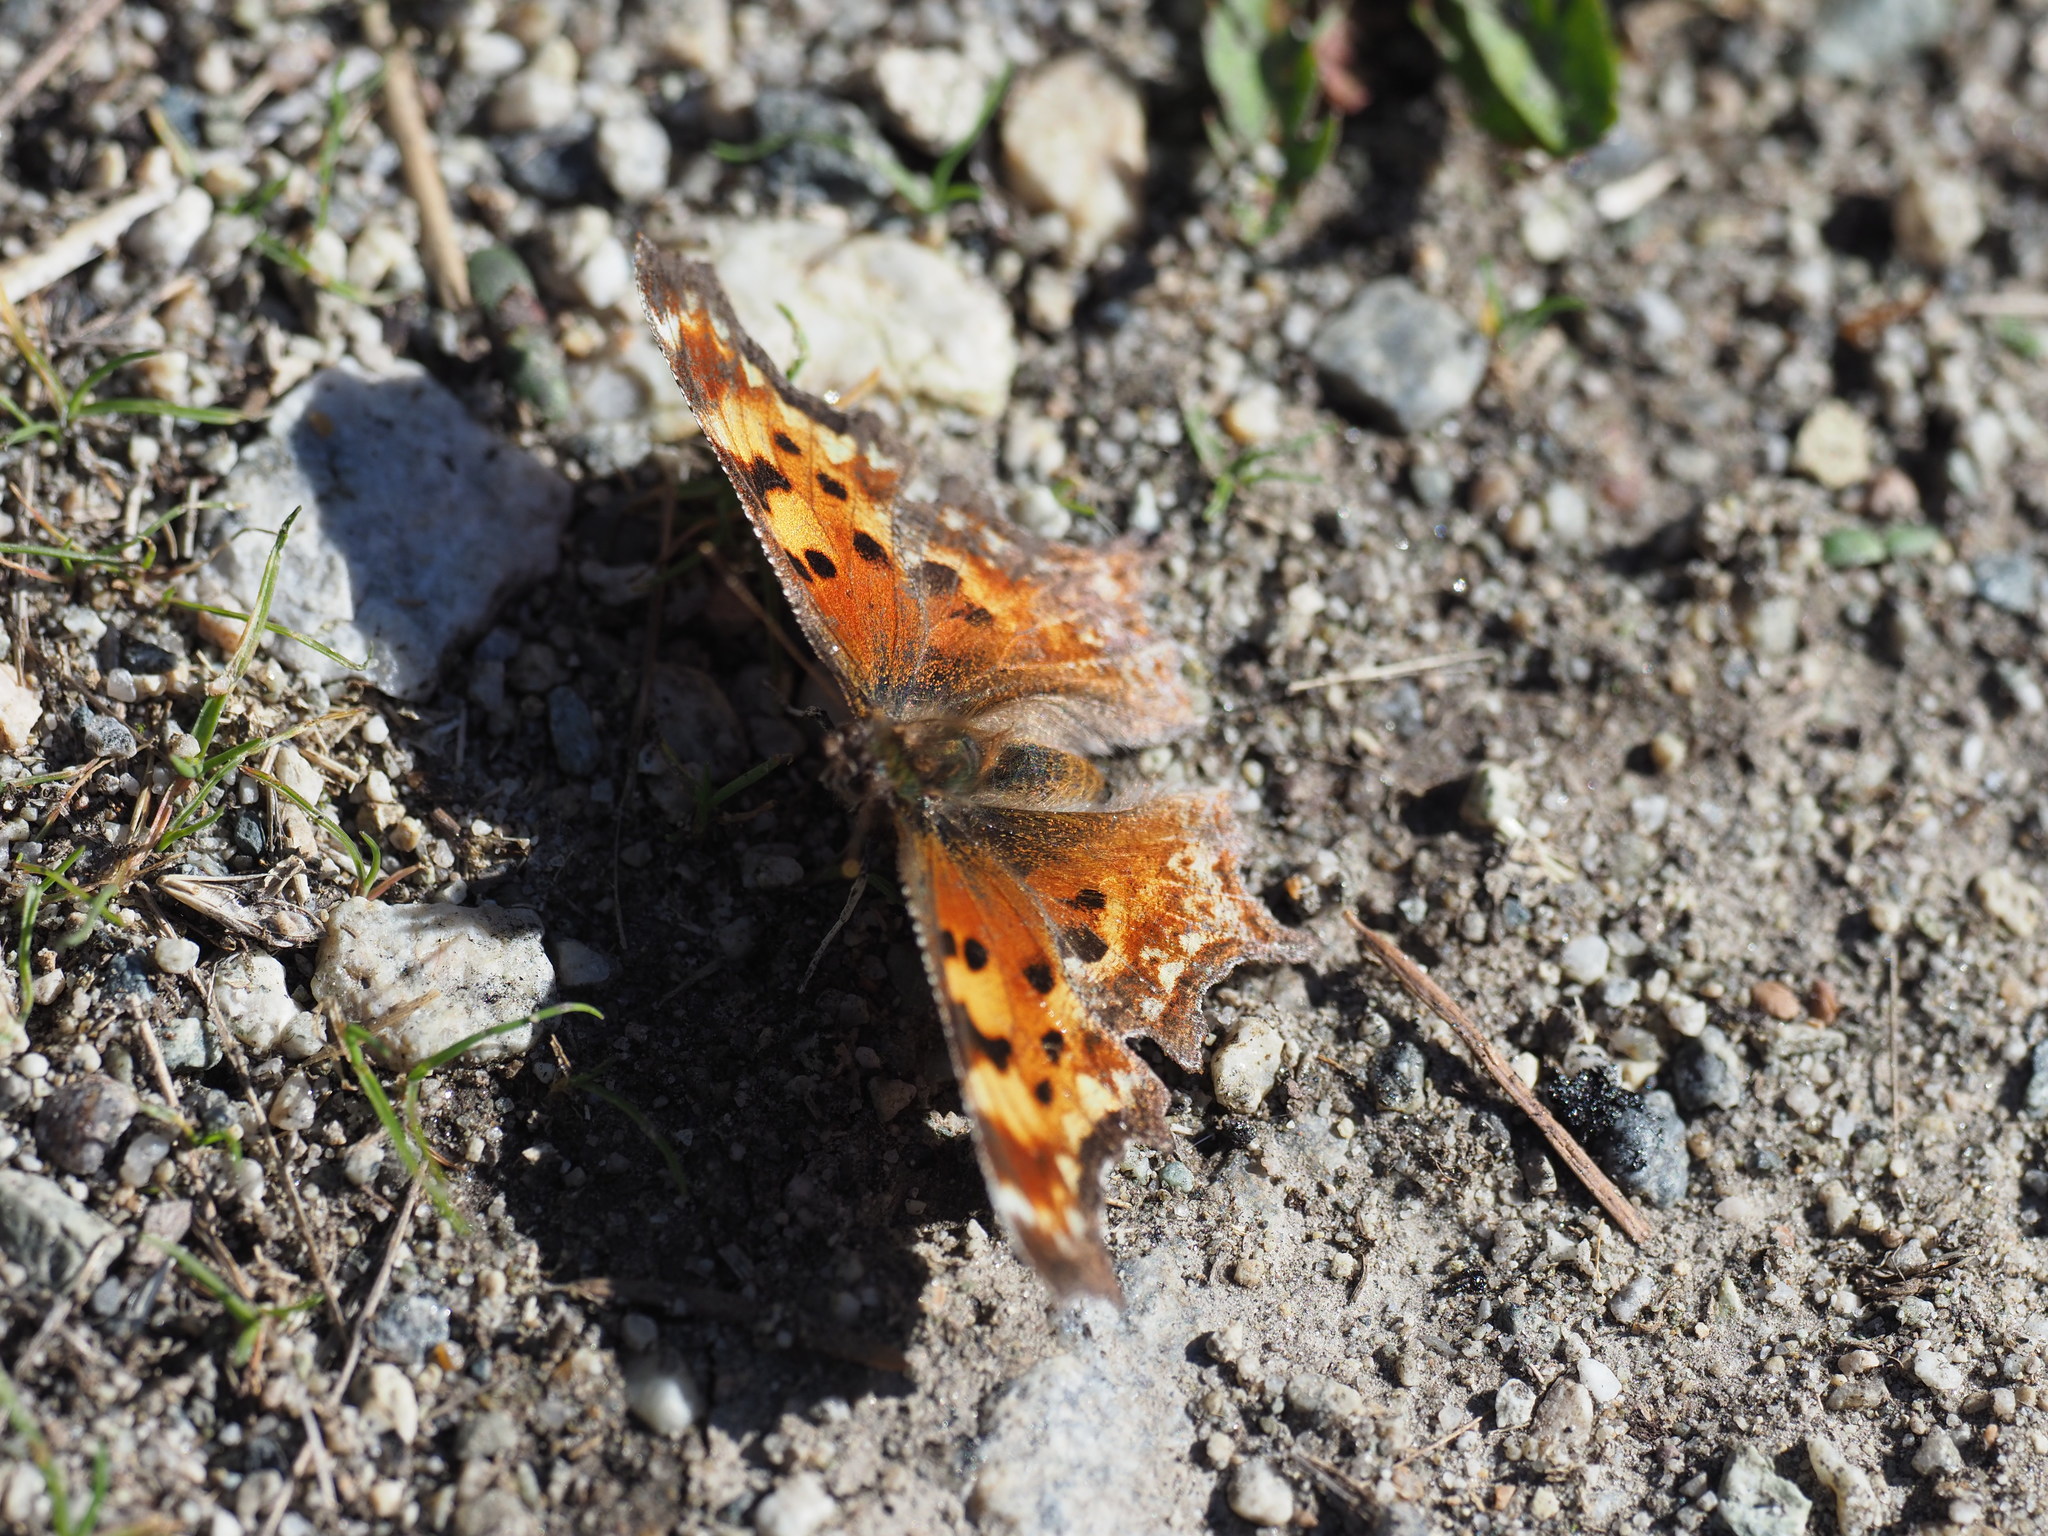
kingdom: Animalia
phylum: Arthropoda
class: Insecta
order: Lepidoptera
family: Nymphalidae
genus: Polygonia
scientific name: Polygonia gracilis
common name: Hoary comma
